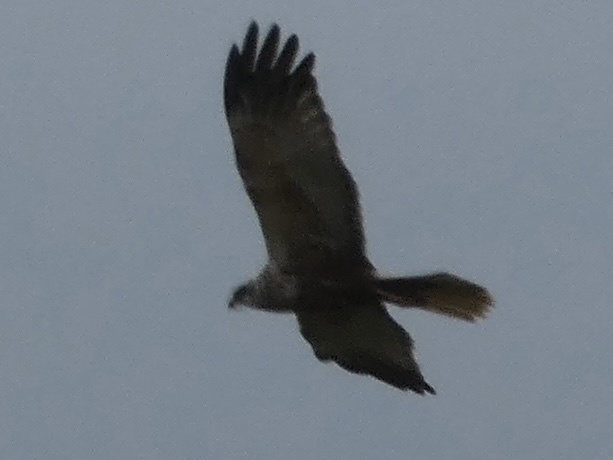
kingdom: Animalia
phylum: Chordata
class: Aves
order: Accipitriformes
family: Accipitridae
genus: Circus
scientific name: Circus aeruginosus
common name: Western marsh harrier
